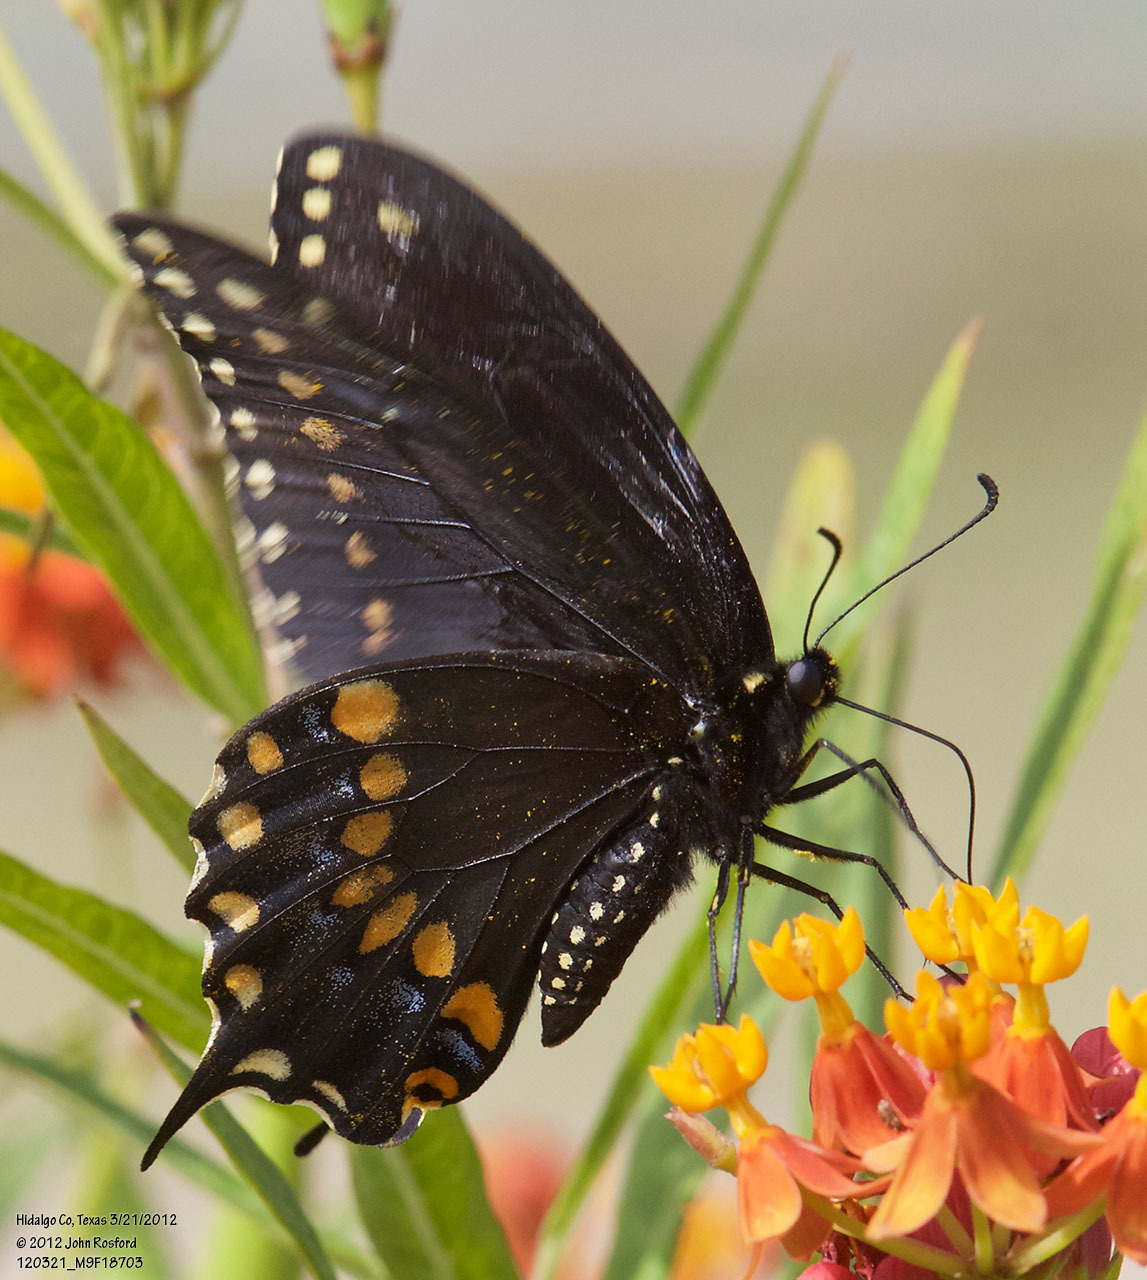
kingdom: Animalia
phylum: Arthropoda
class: Insecta
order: Lepidoptera
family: Papilionidae
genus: Papilio
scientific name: Papilio polyxenes
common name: Black swallowtail
